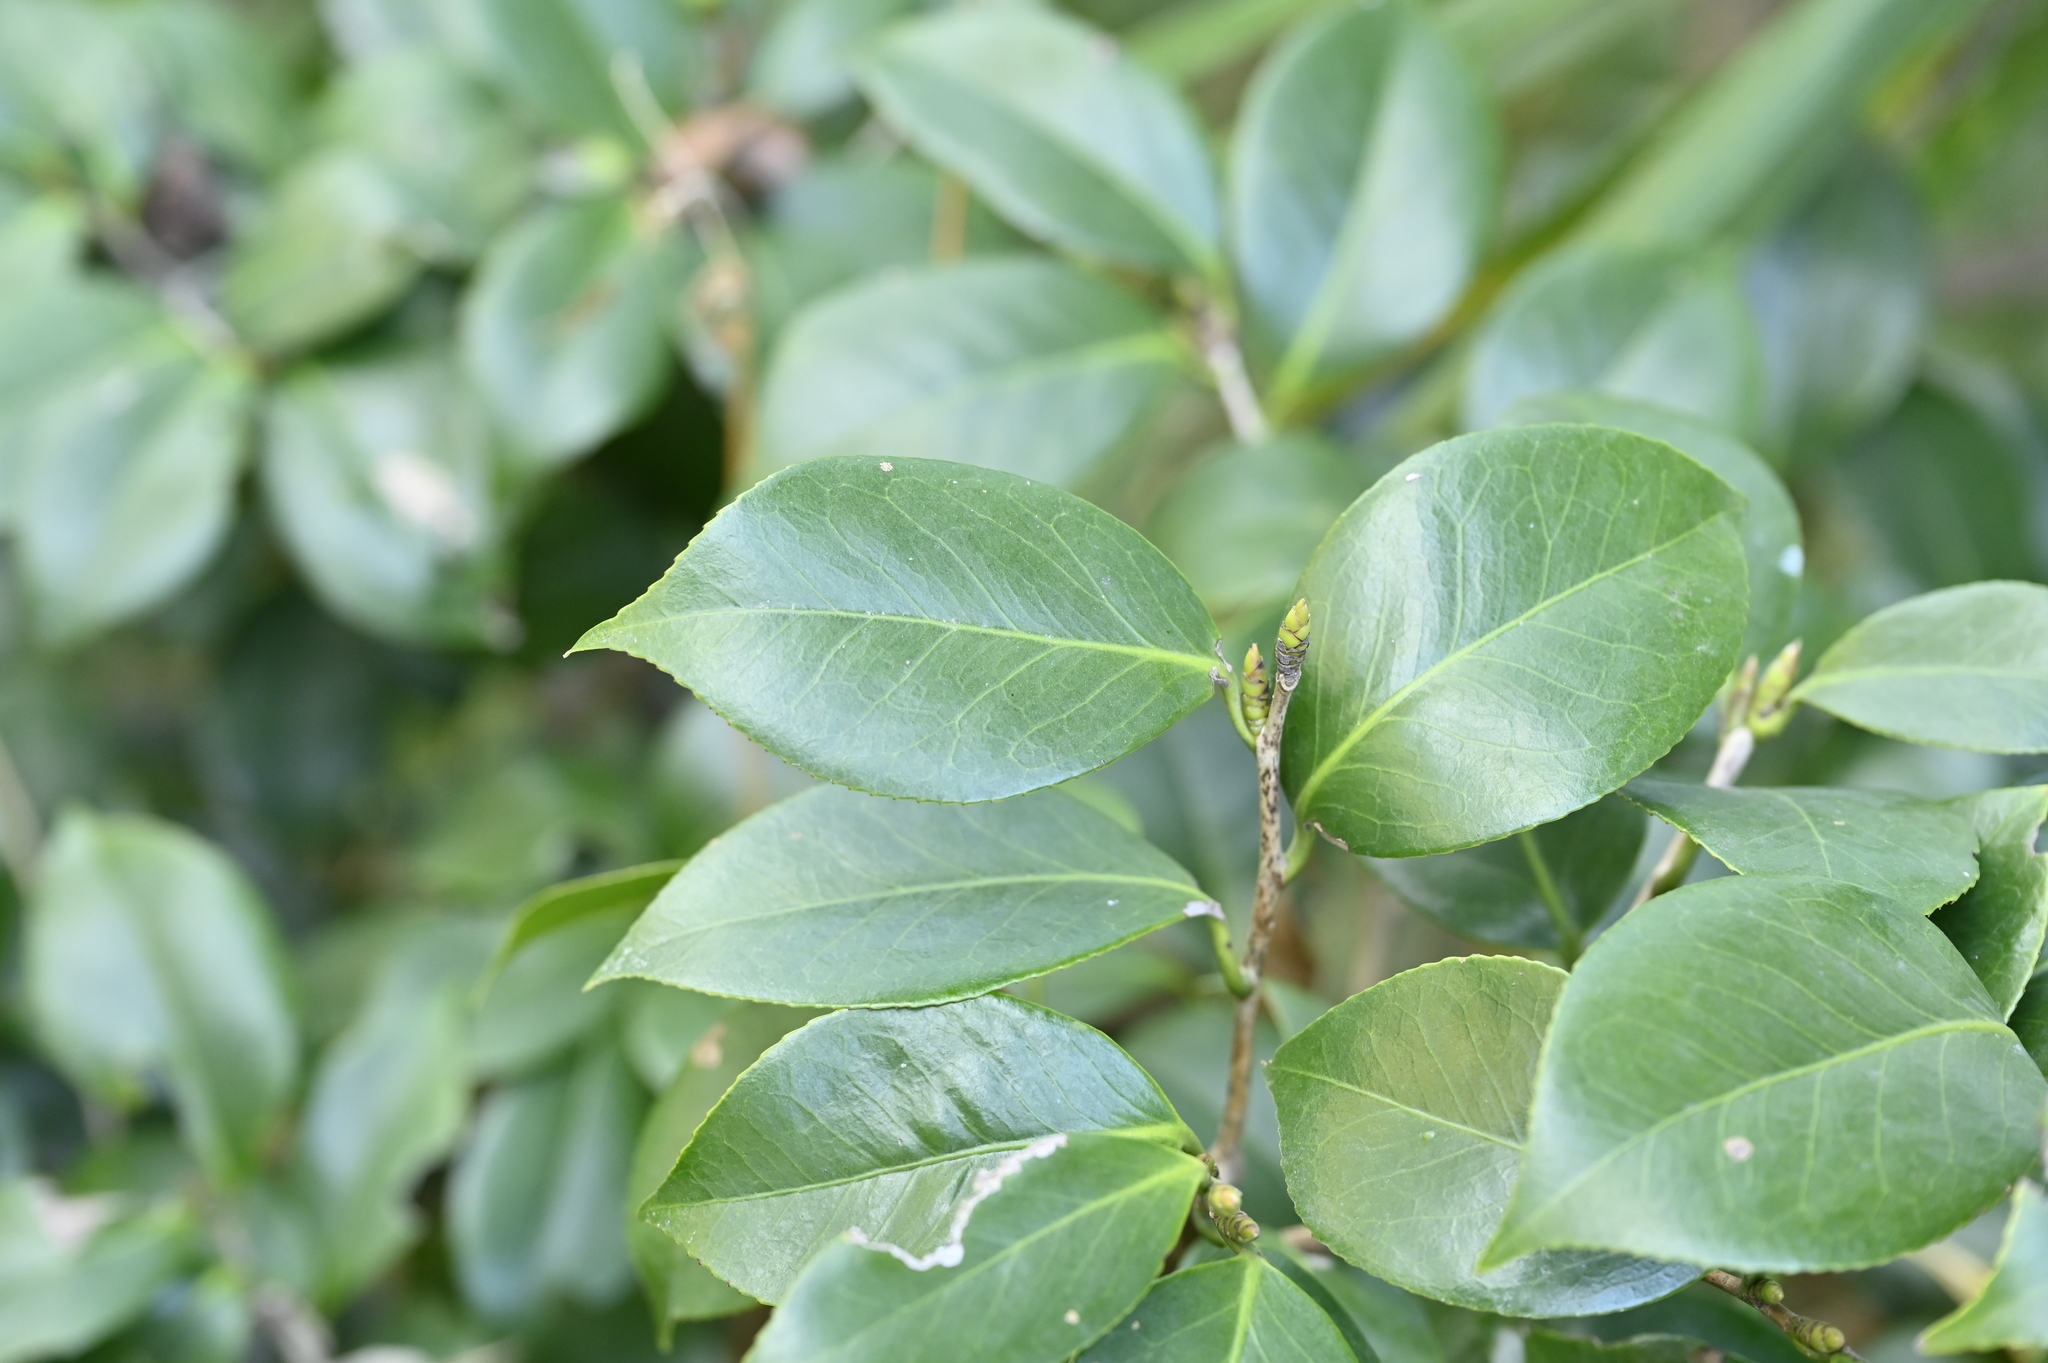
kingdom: Plantae
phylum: Tracheophyta
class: Magnoliopsida
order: Ericales
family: Theaceae
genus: Camellia
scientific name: Camellia japonica
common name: Camellia
